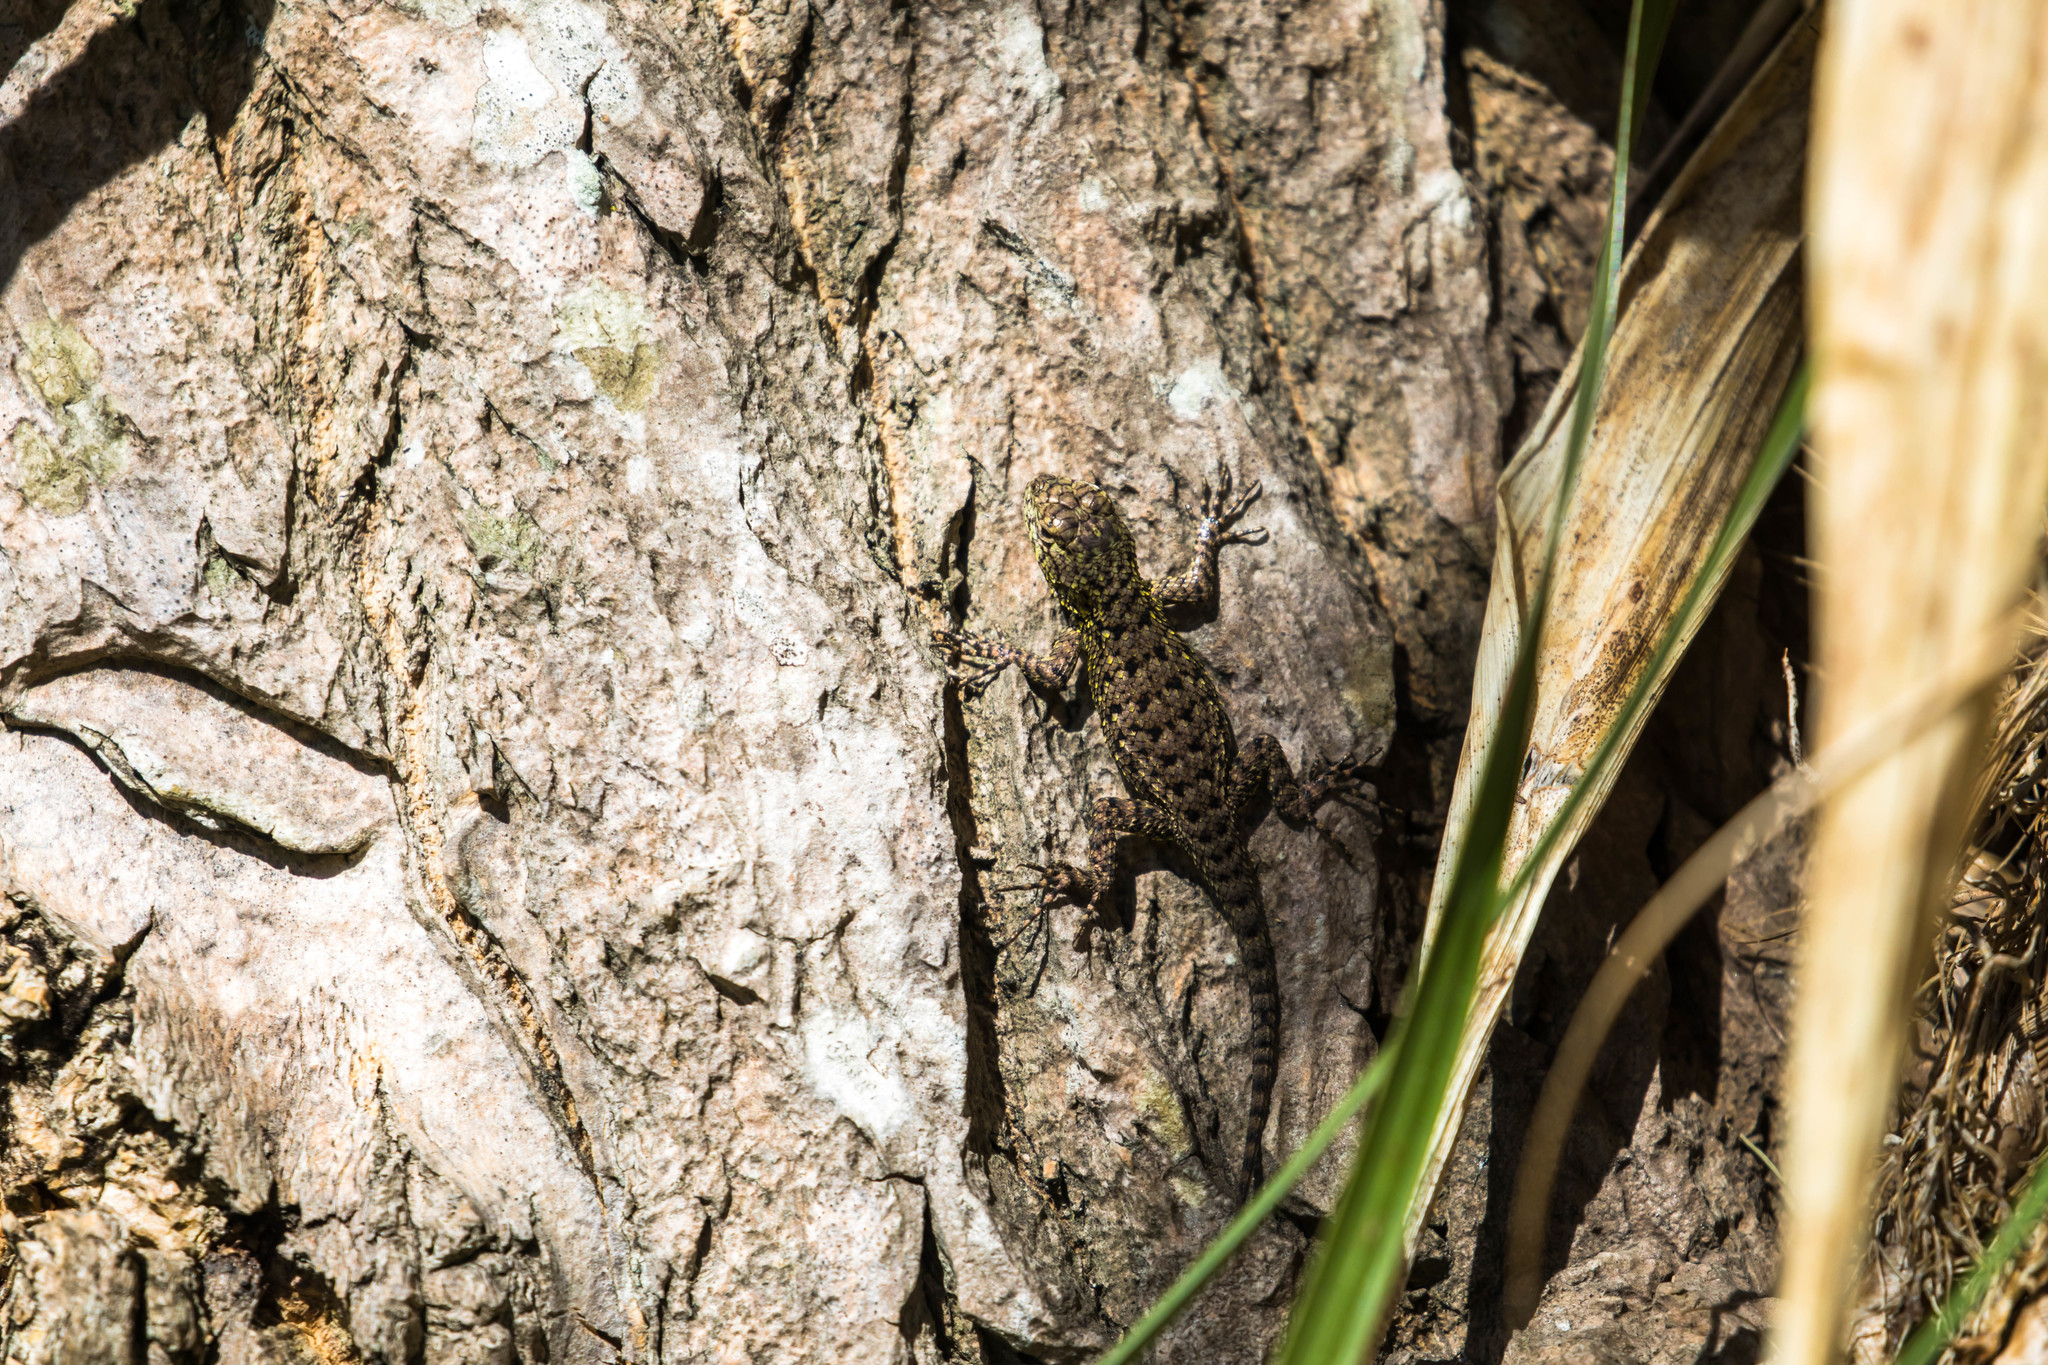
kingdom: Animalia
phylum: Chordata
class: Squamata
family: Phrynosomatidae
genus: Sceloporus
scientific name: Sceloporus malachiticus
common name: Green spiny lizard
